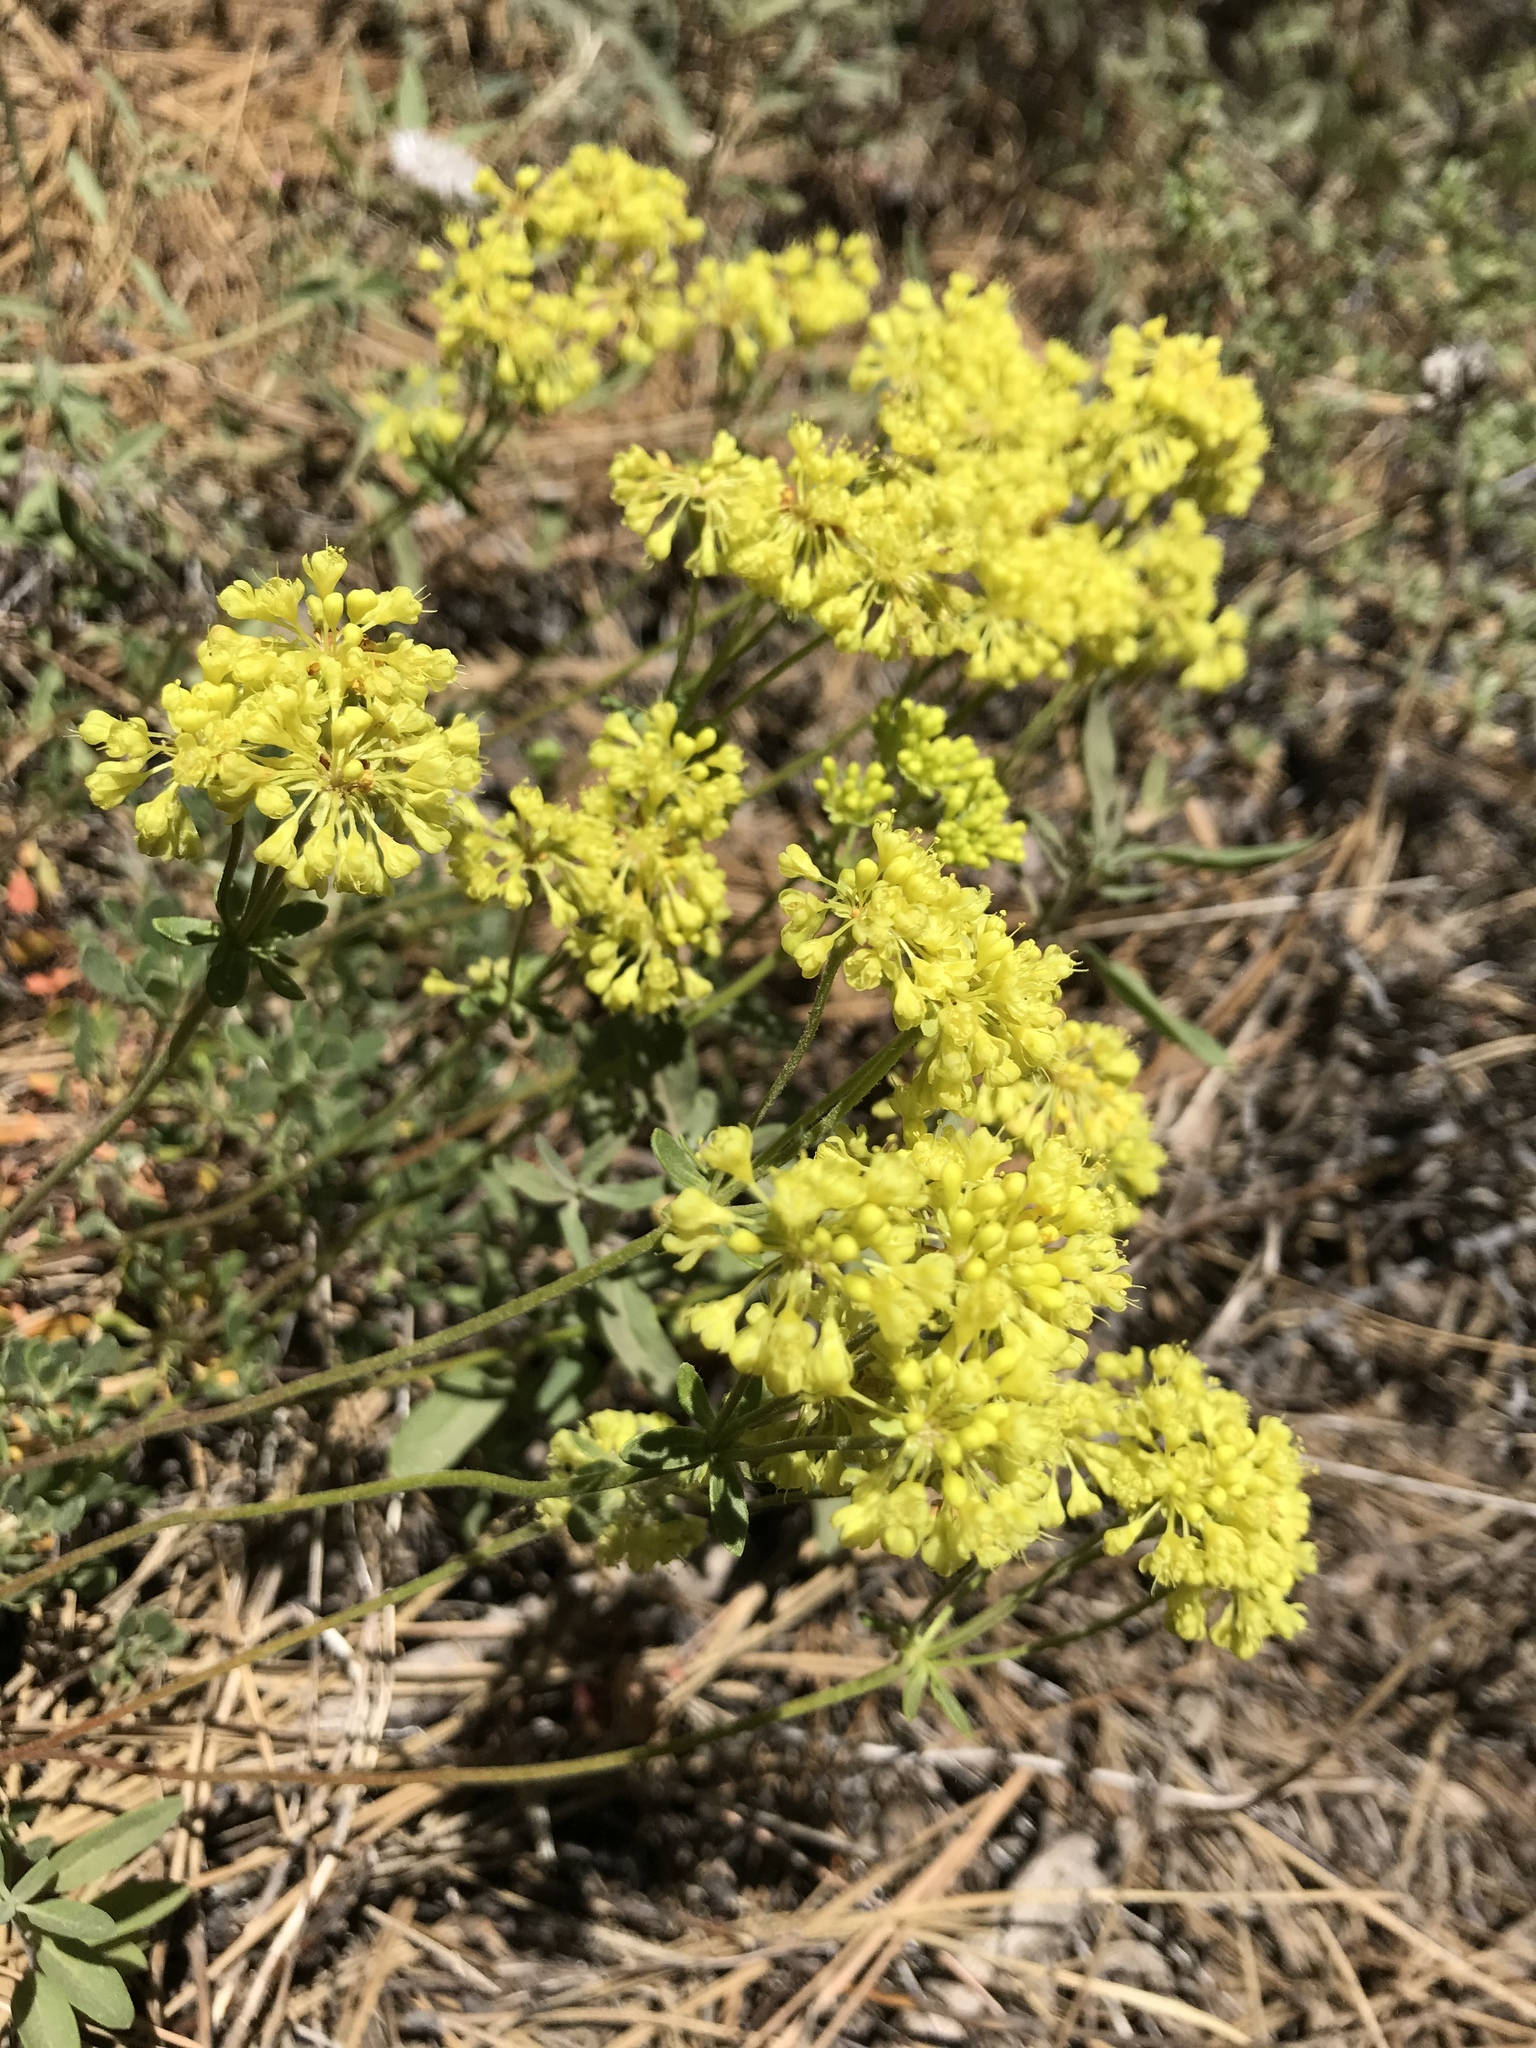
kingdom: Plantae
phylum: Tracheophyta
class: Magnoliopsida
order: Caryophyllales
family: Polygonaceae
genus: Eriogonum
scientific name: Eriogonum umbellatum
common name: Sulfur-buckwheat
